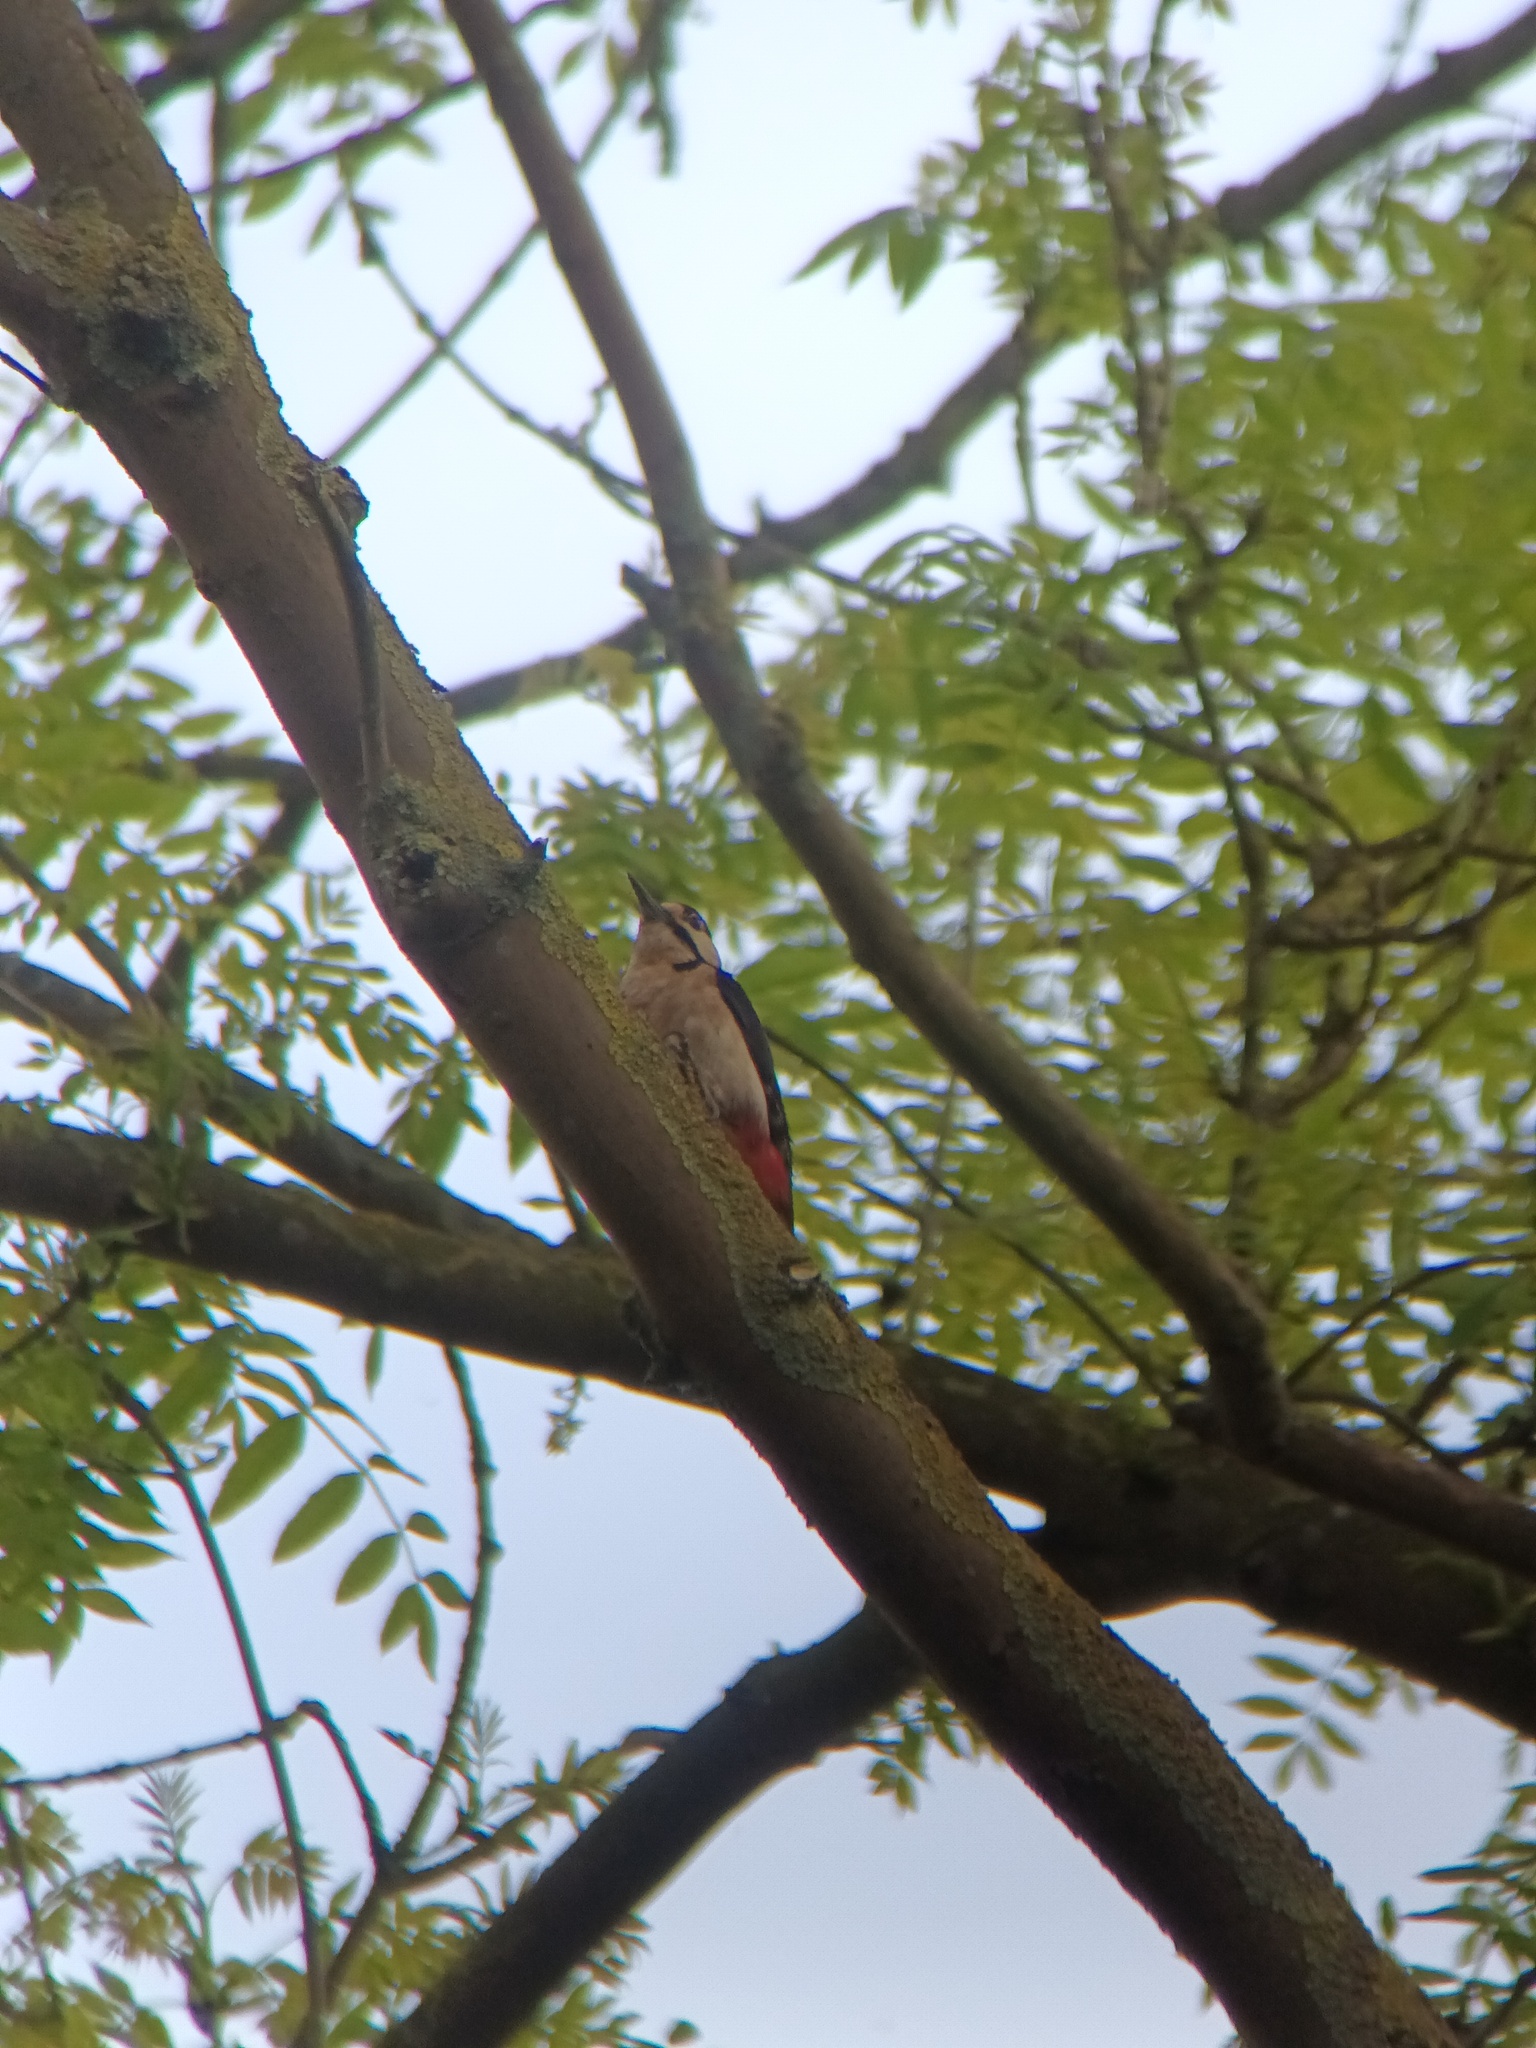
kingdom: Animalia
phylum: Chordata
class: Aves
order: Piciformes
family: Picidae
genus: Dendrocopos
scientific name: Dendrocopos major
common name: Great spotted woodpecker
